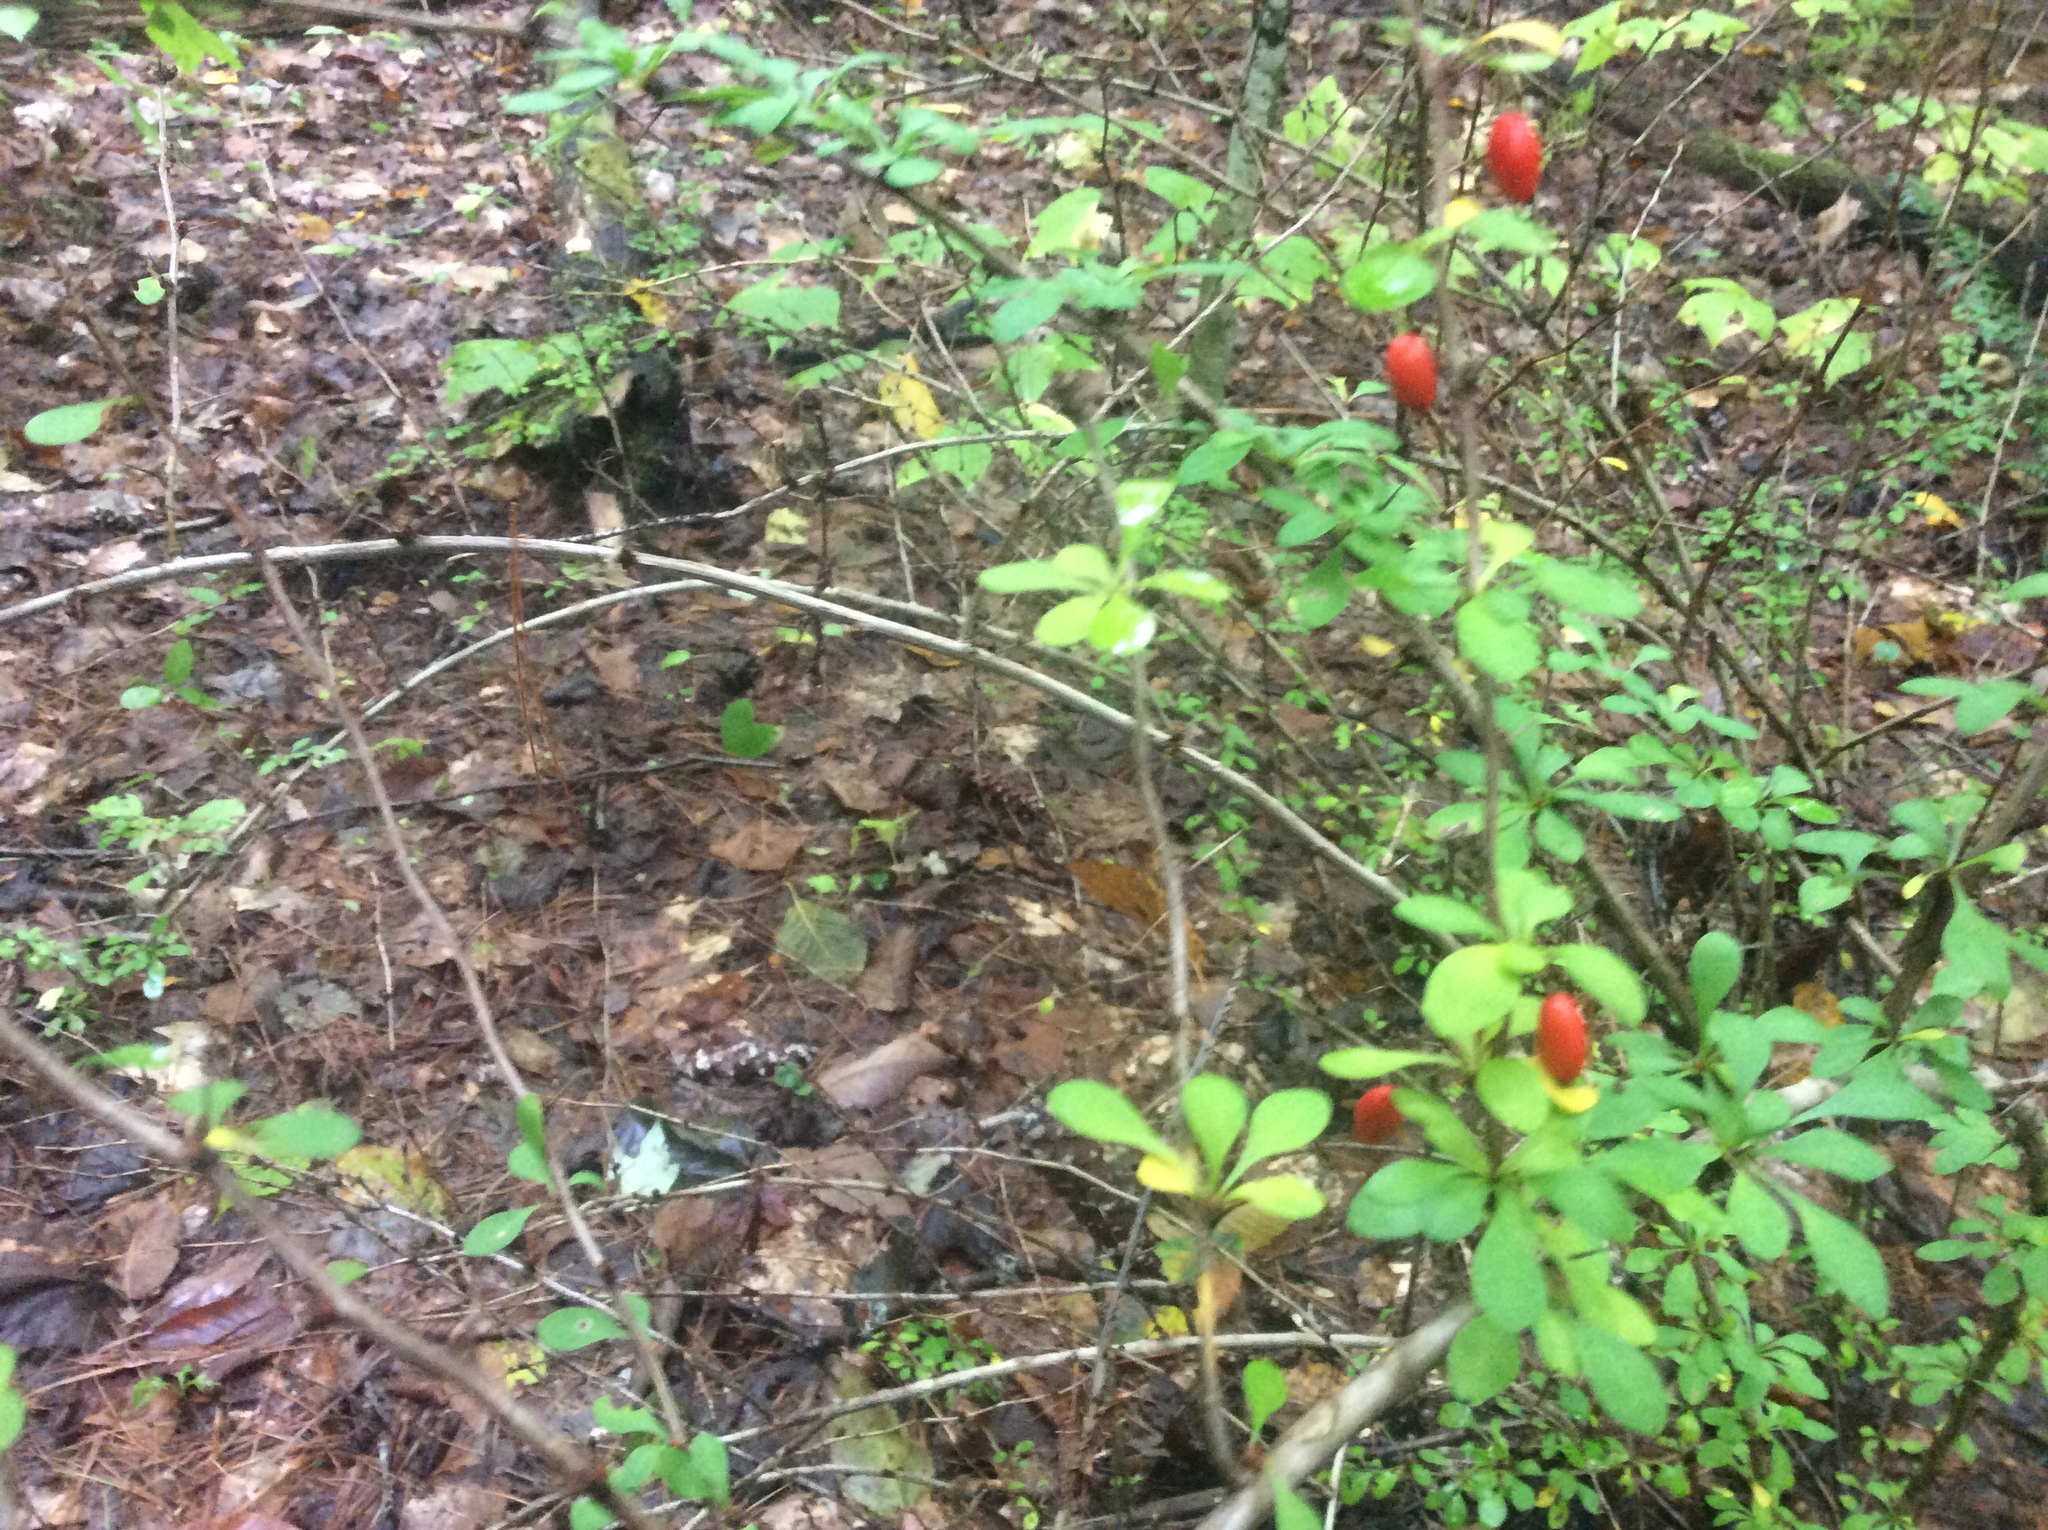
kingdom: Plantae
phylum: Tracheophyta
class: Magnoliopsida
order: Ranunculales
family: Berberidaceae
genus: Berberis
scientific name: Berberis thunbergii
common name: Japanese barberry
